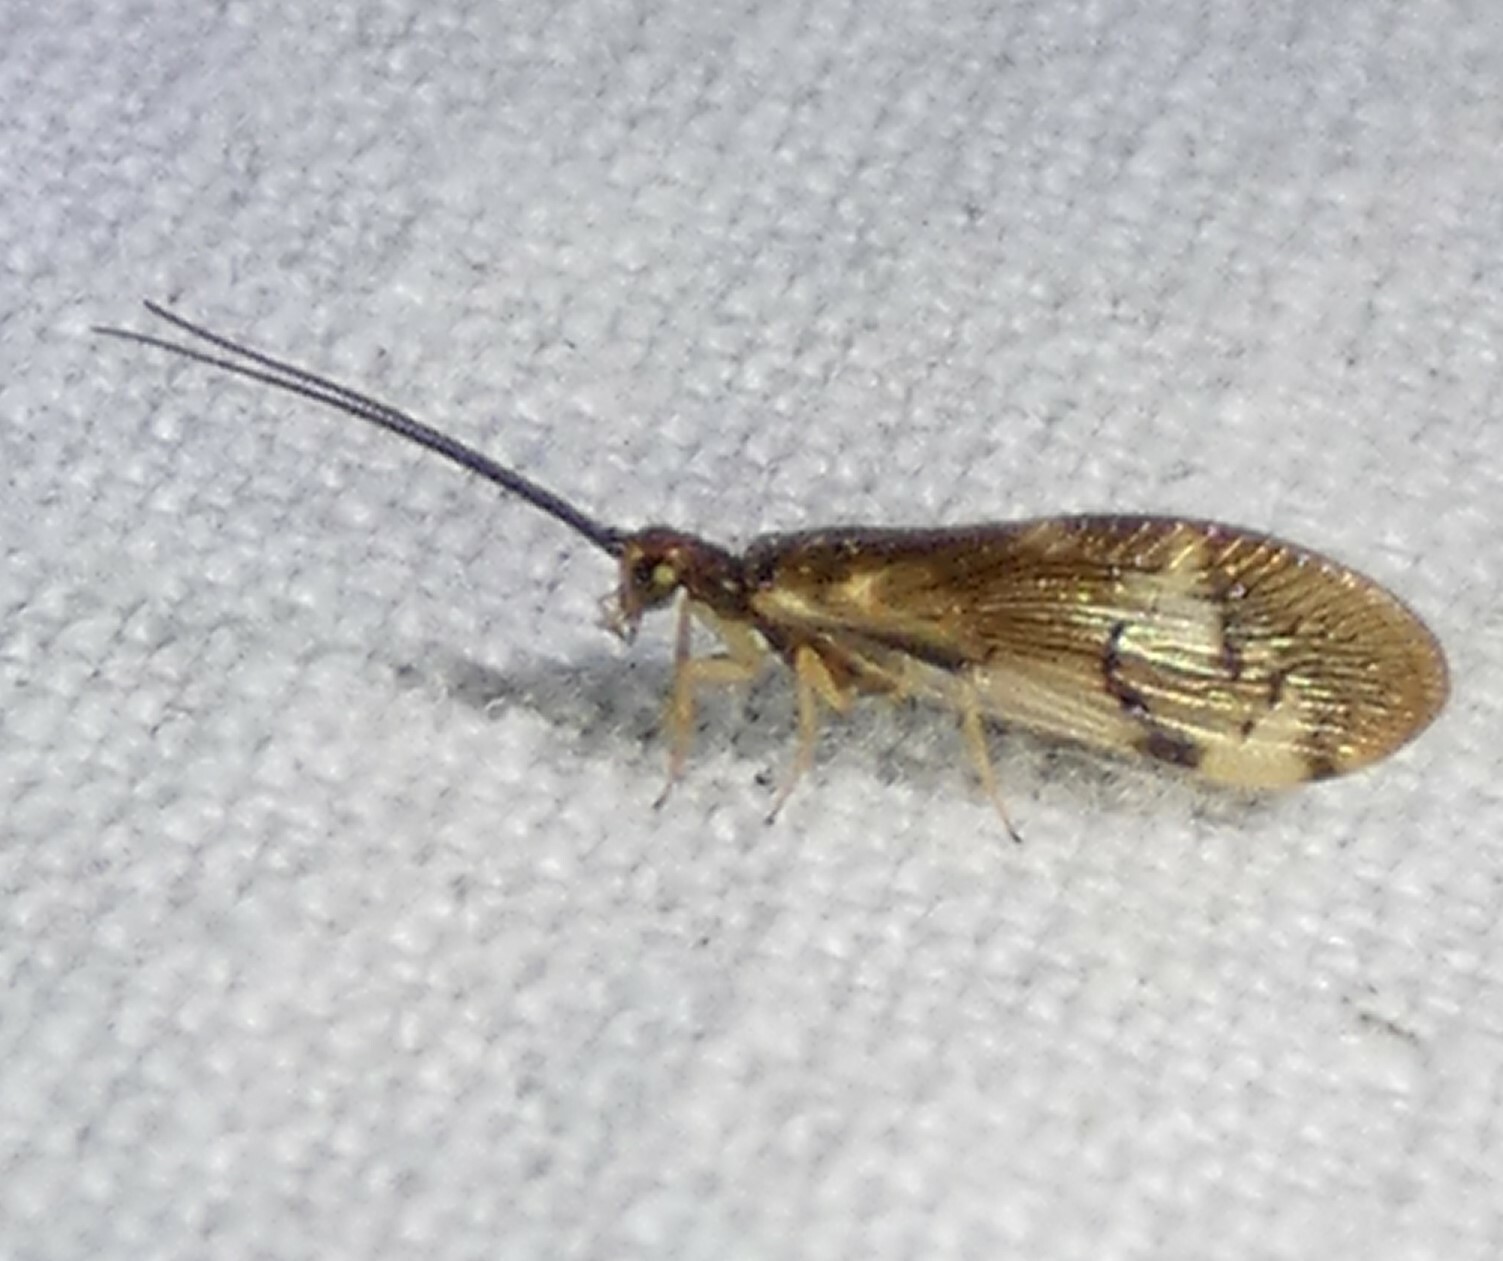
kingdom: Animalia
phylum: Arthropoda
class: Insecta
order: Neuroptera
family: Sisyridae
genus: Climacia
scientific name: Climacia areolaris
